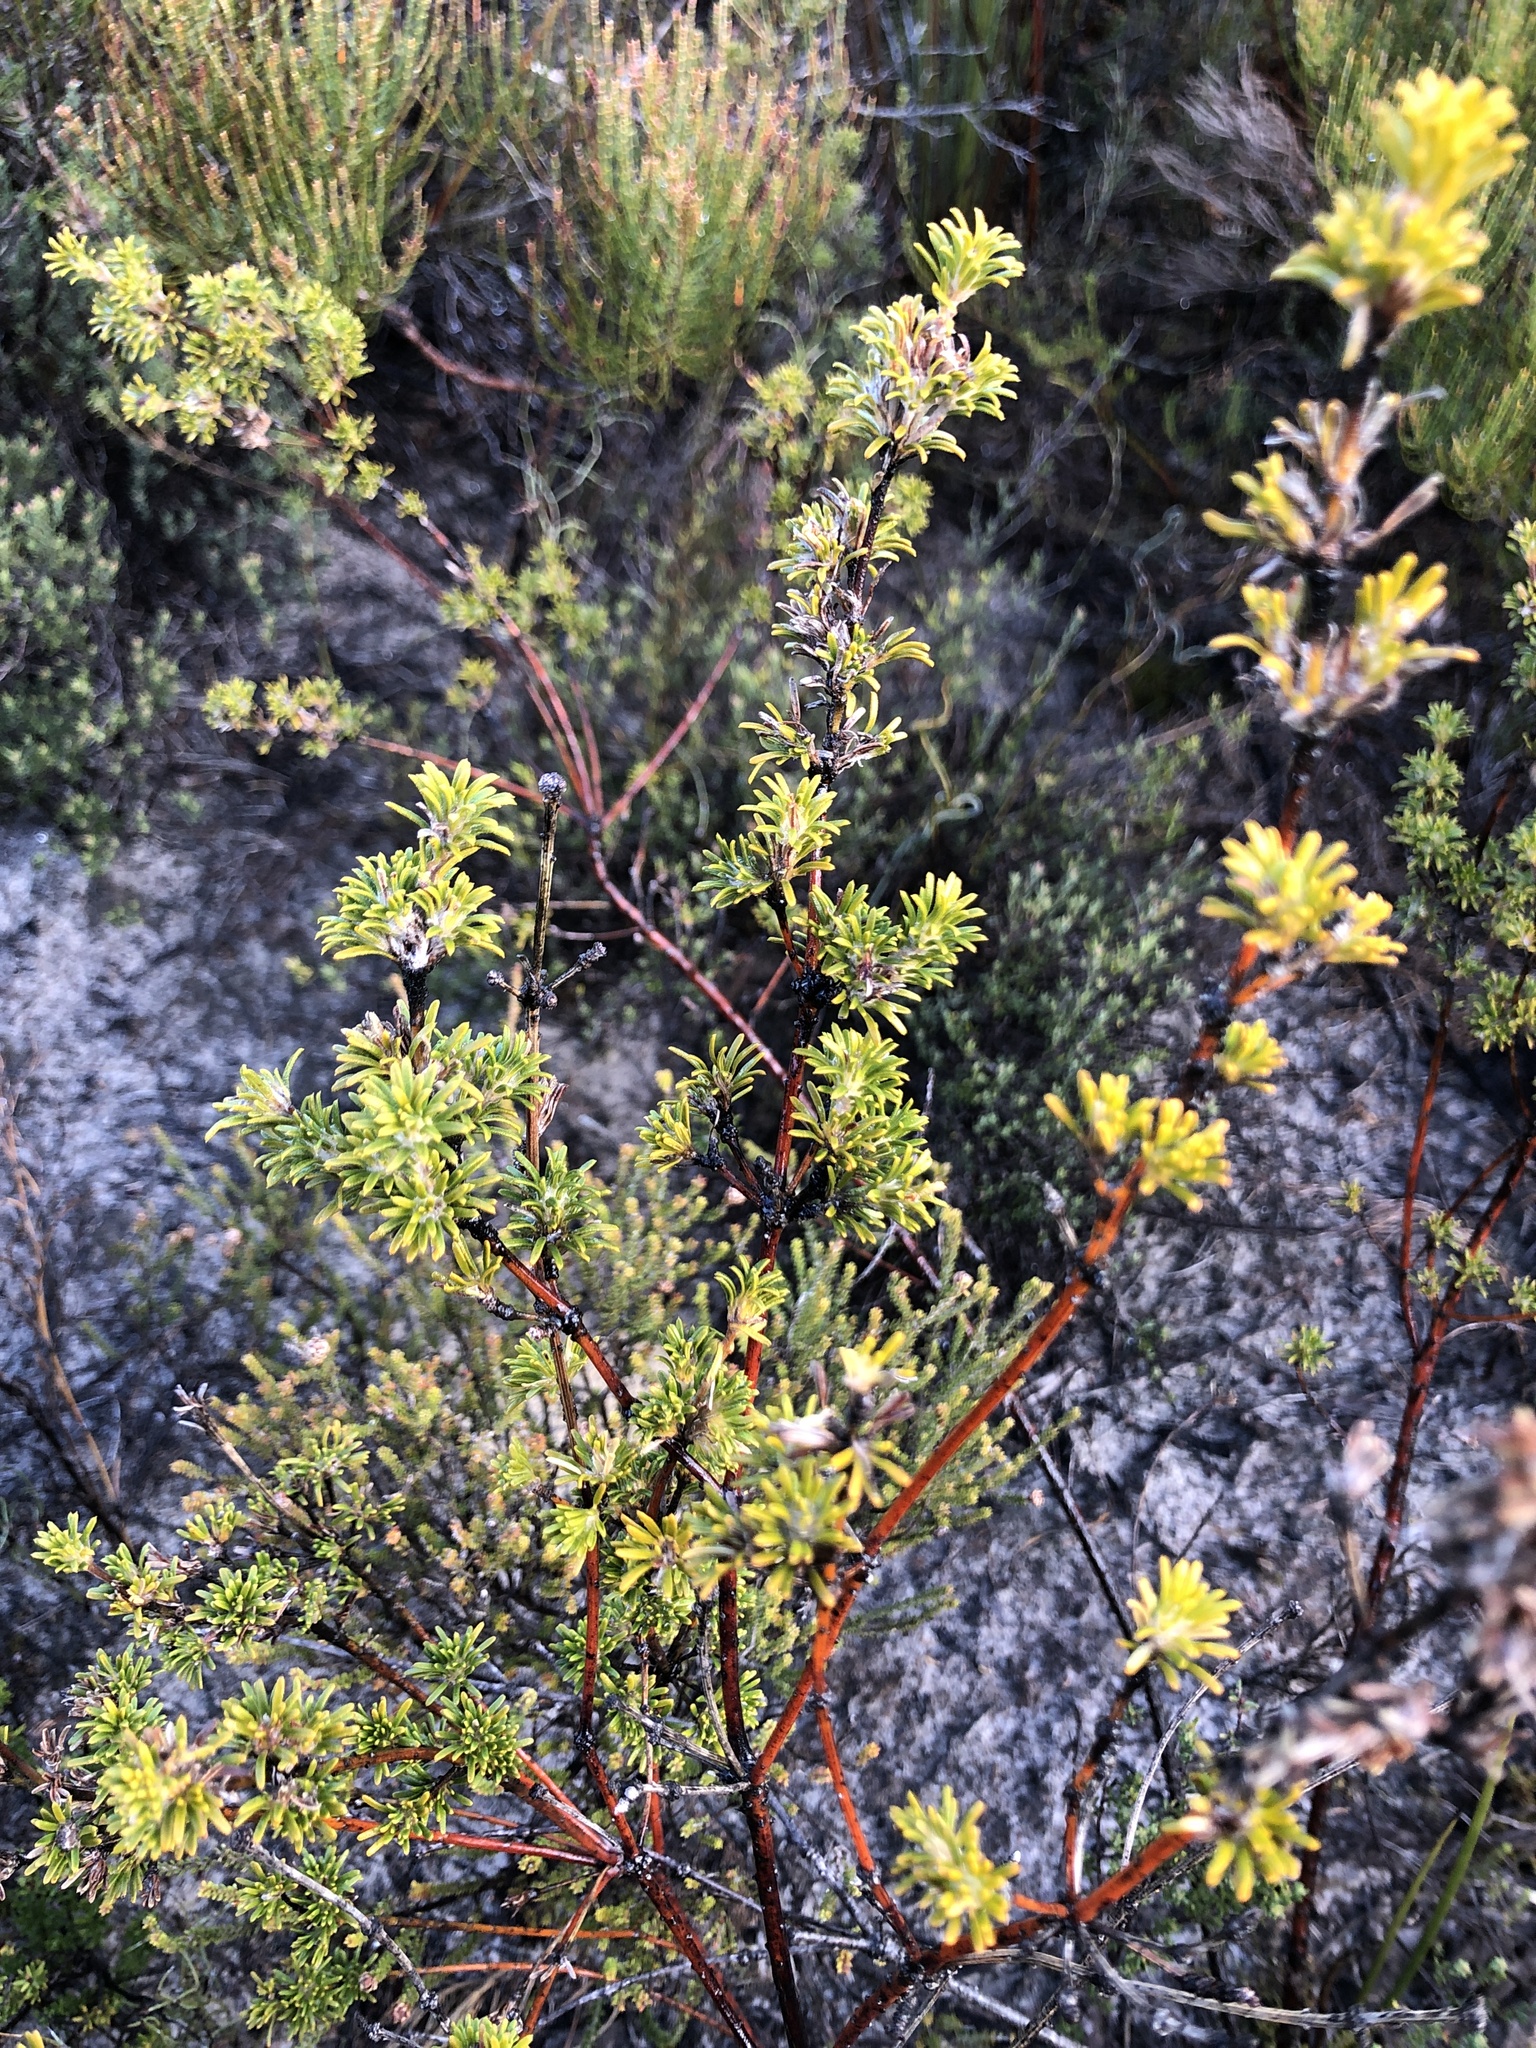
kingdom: Plantae
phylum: Tracheophyta
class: Magnoliopsida
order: Fabales
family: Fabaceae
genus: Phyllota
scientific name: Phyllota pleurandroides
